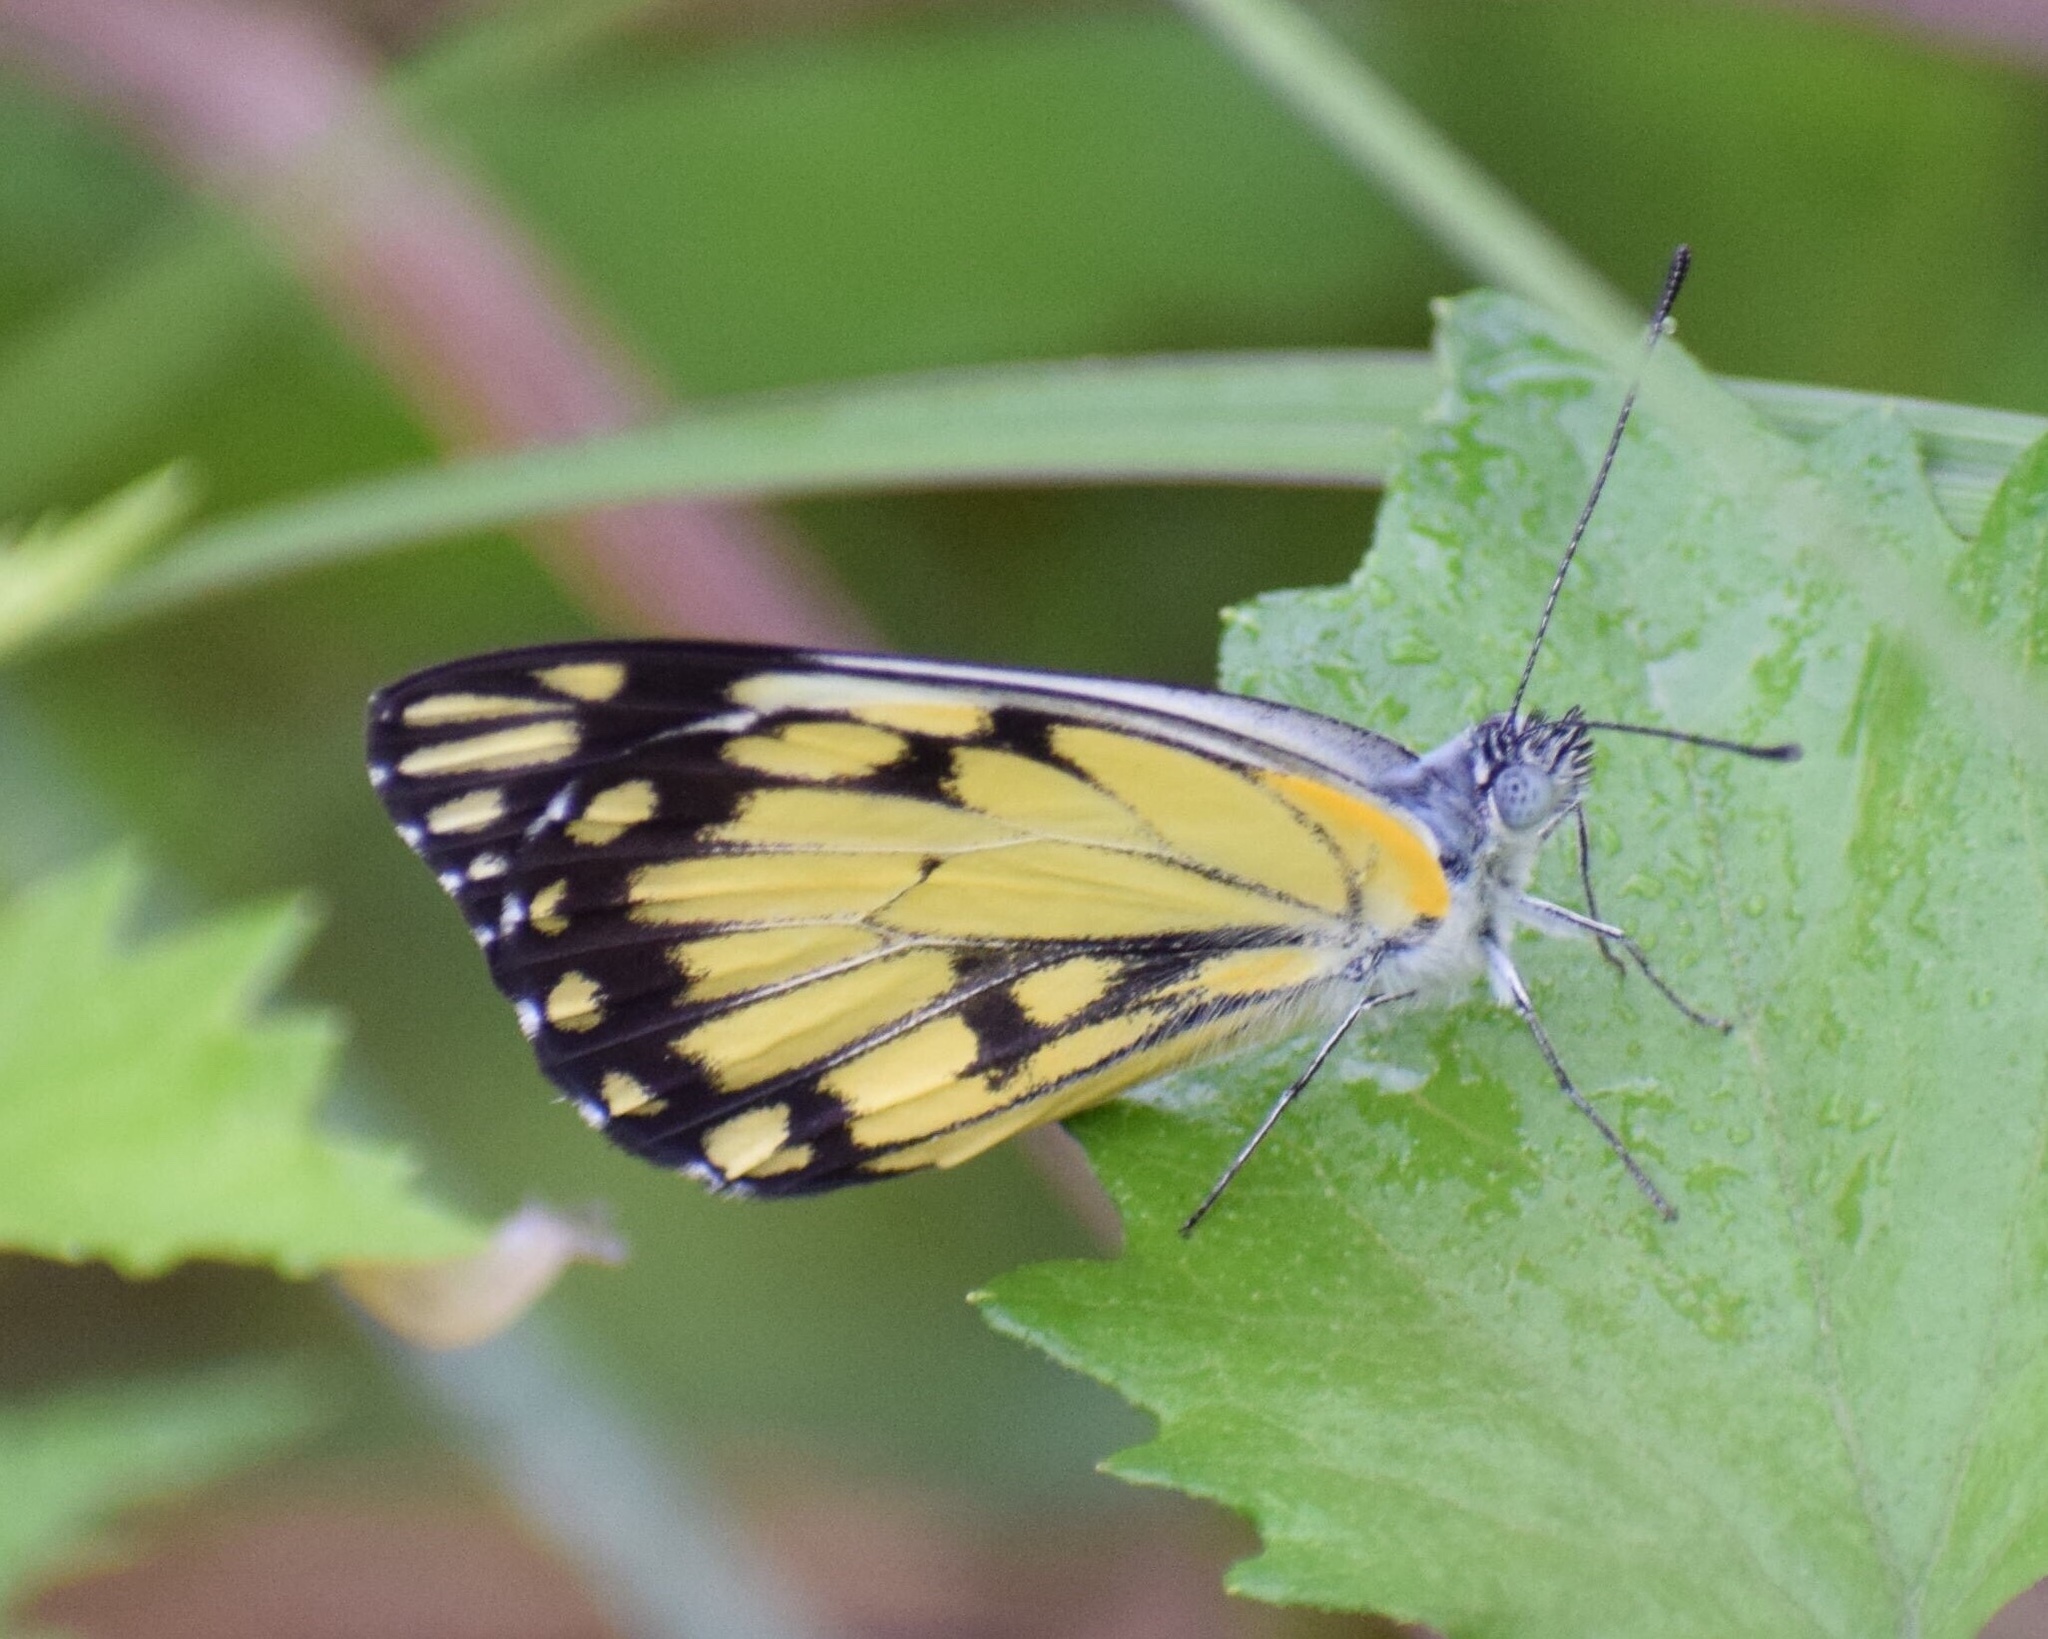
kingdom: Animalia
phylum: Arthropoda
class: Insecta
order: Lepidoptera
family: Pieridae
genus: Belenois
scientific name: Belenois creona
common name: African caper white
